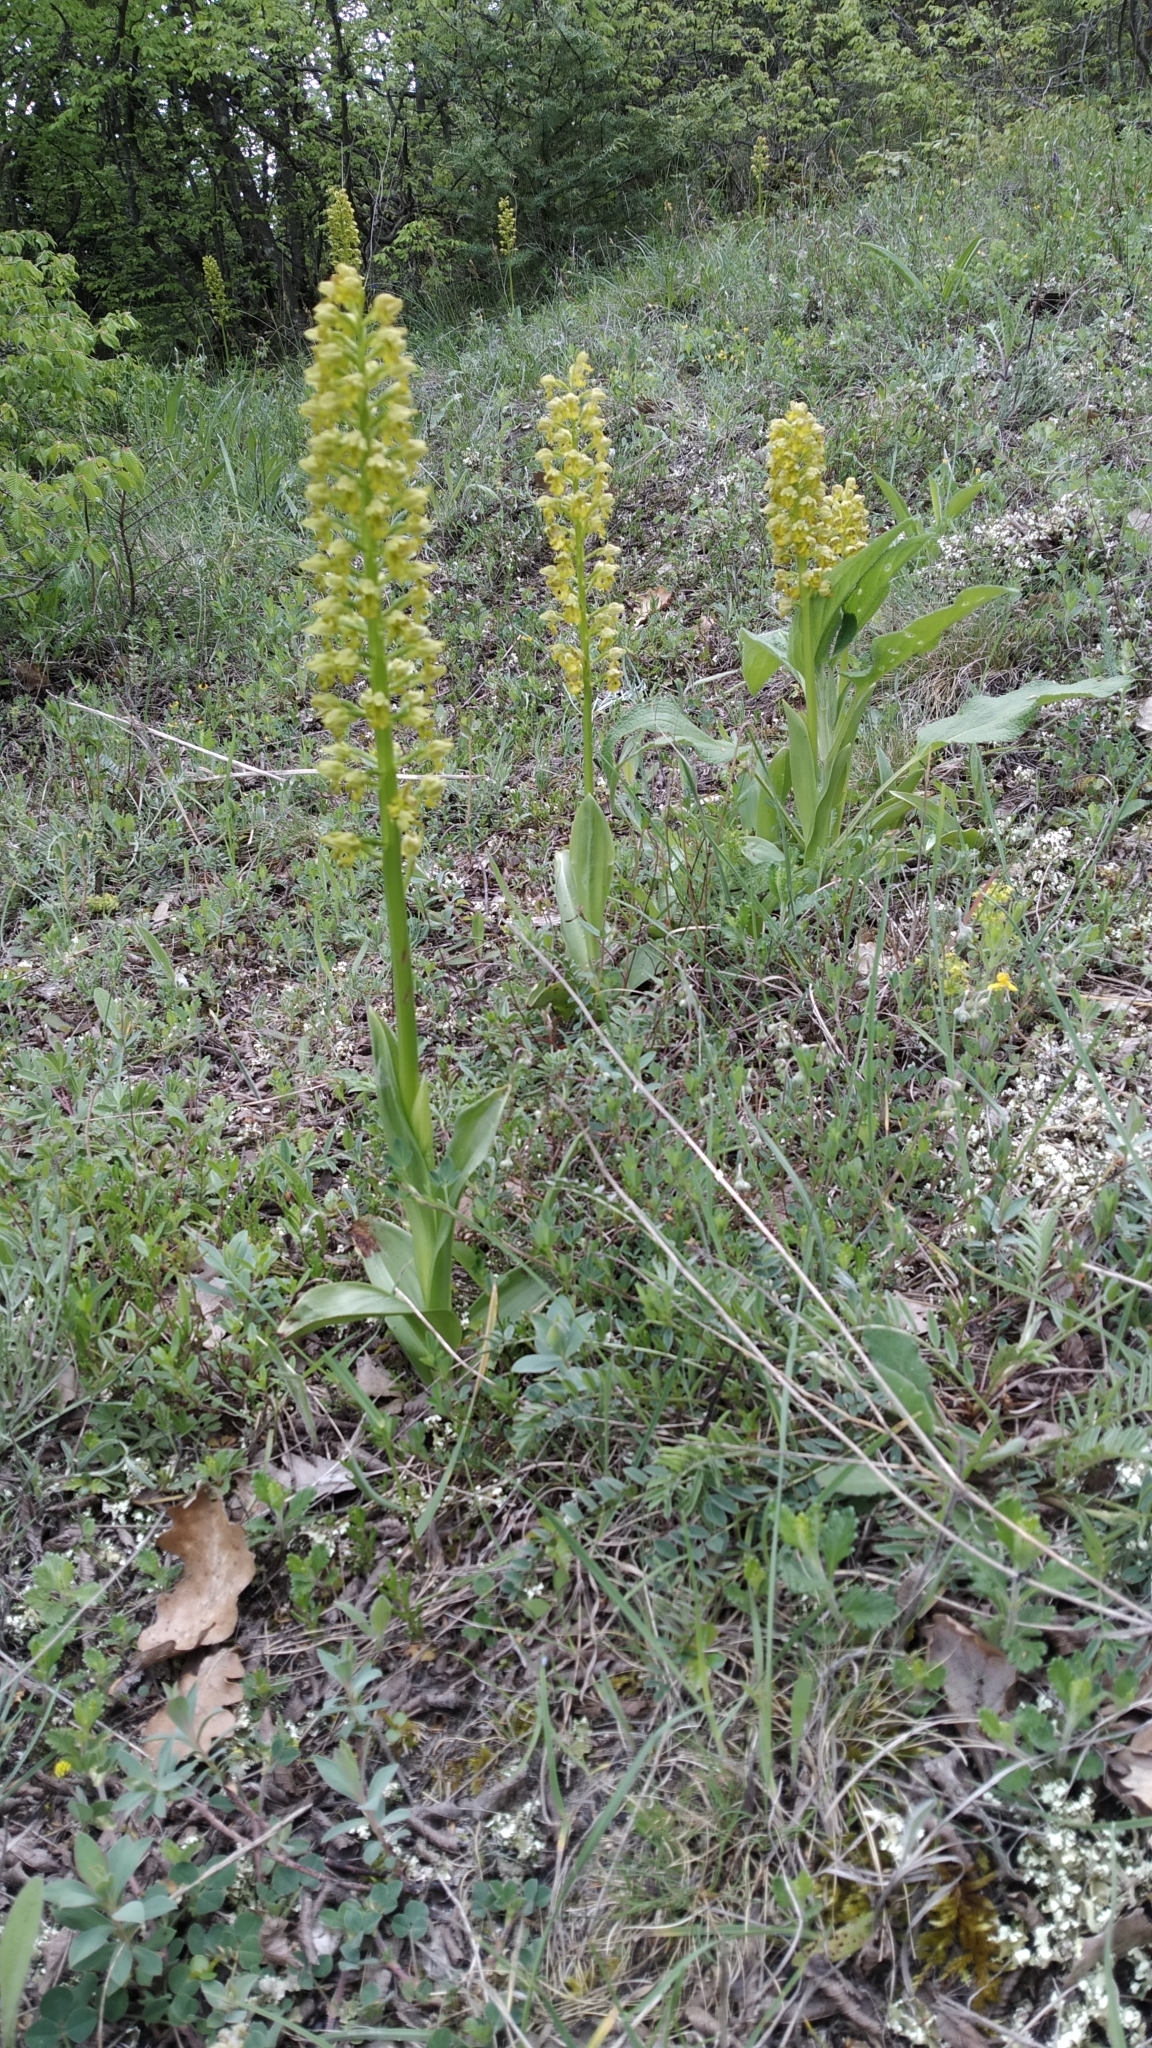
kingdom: Plantae
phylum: Tracheophyta
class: Liliopsida
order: Asparagales
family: Orchidaceae
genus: Orchis
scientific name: Orchis punctulata
